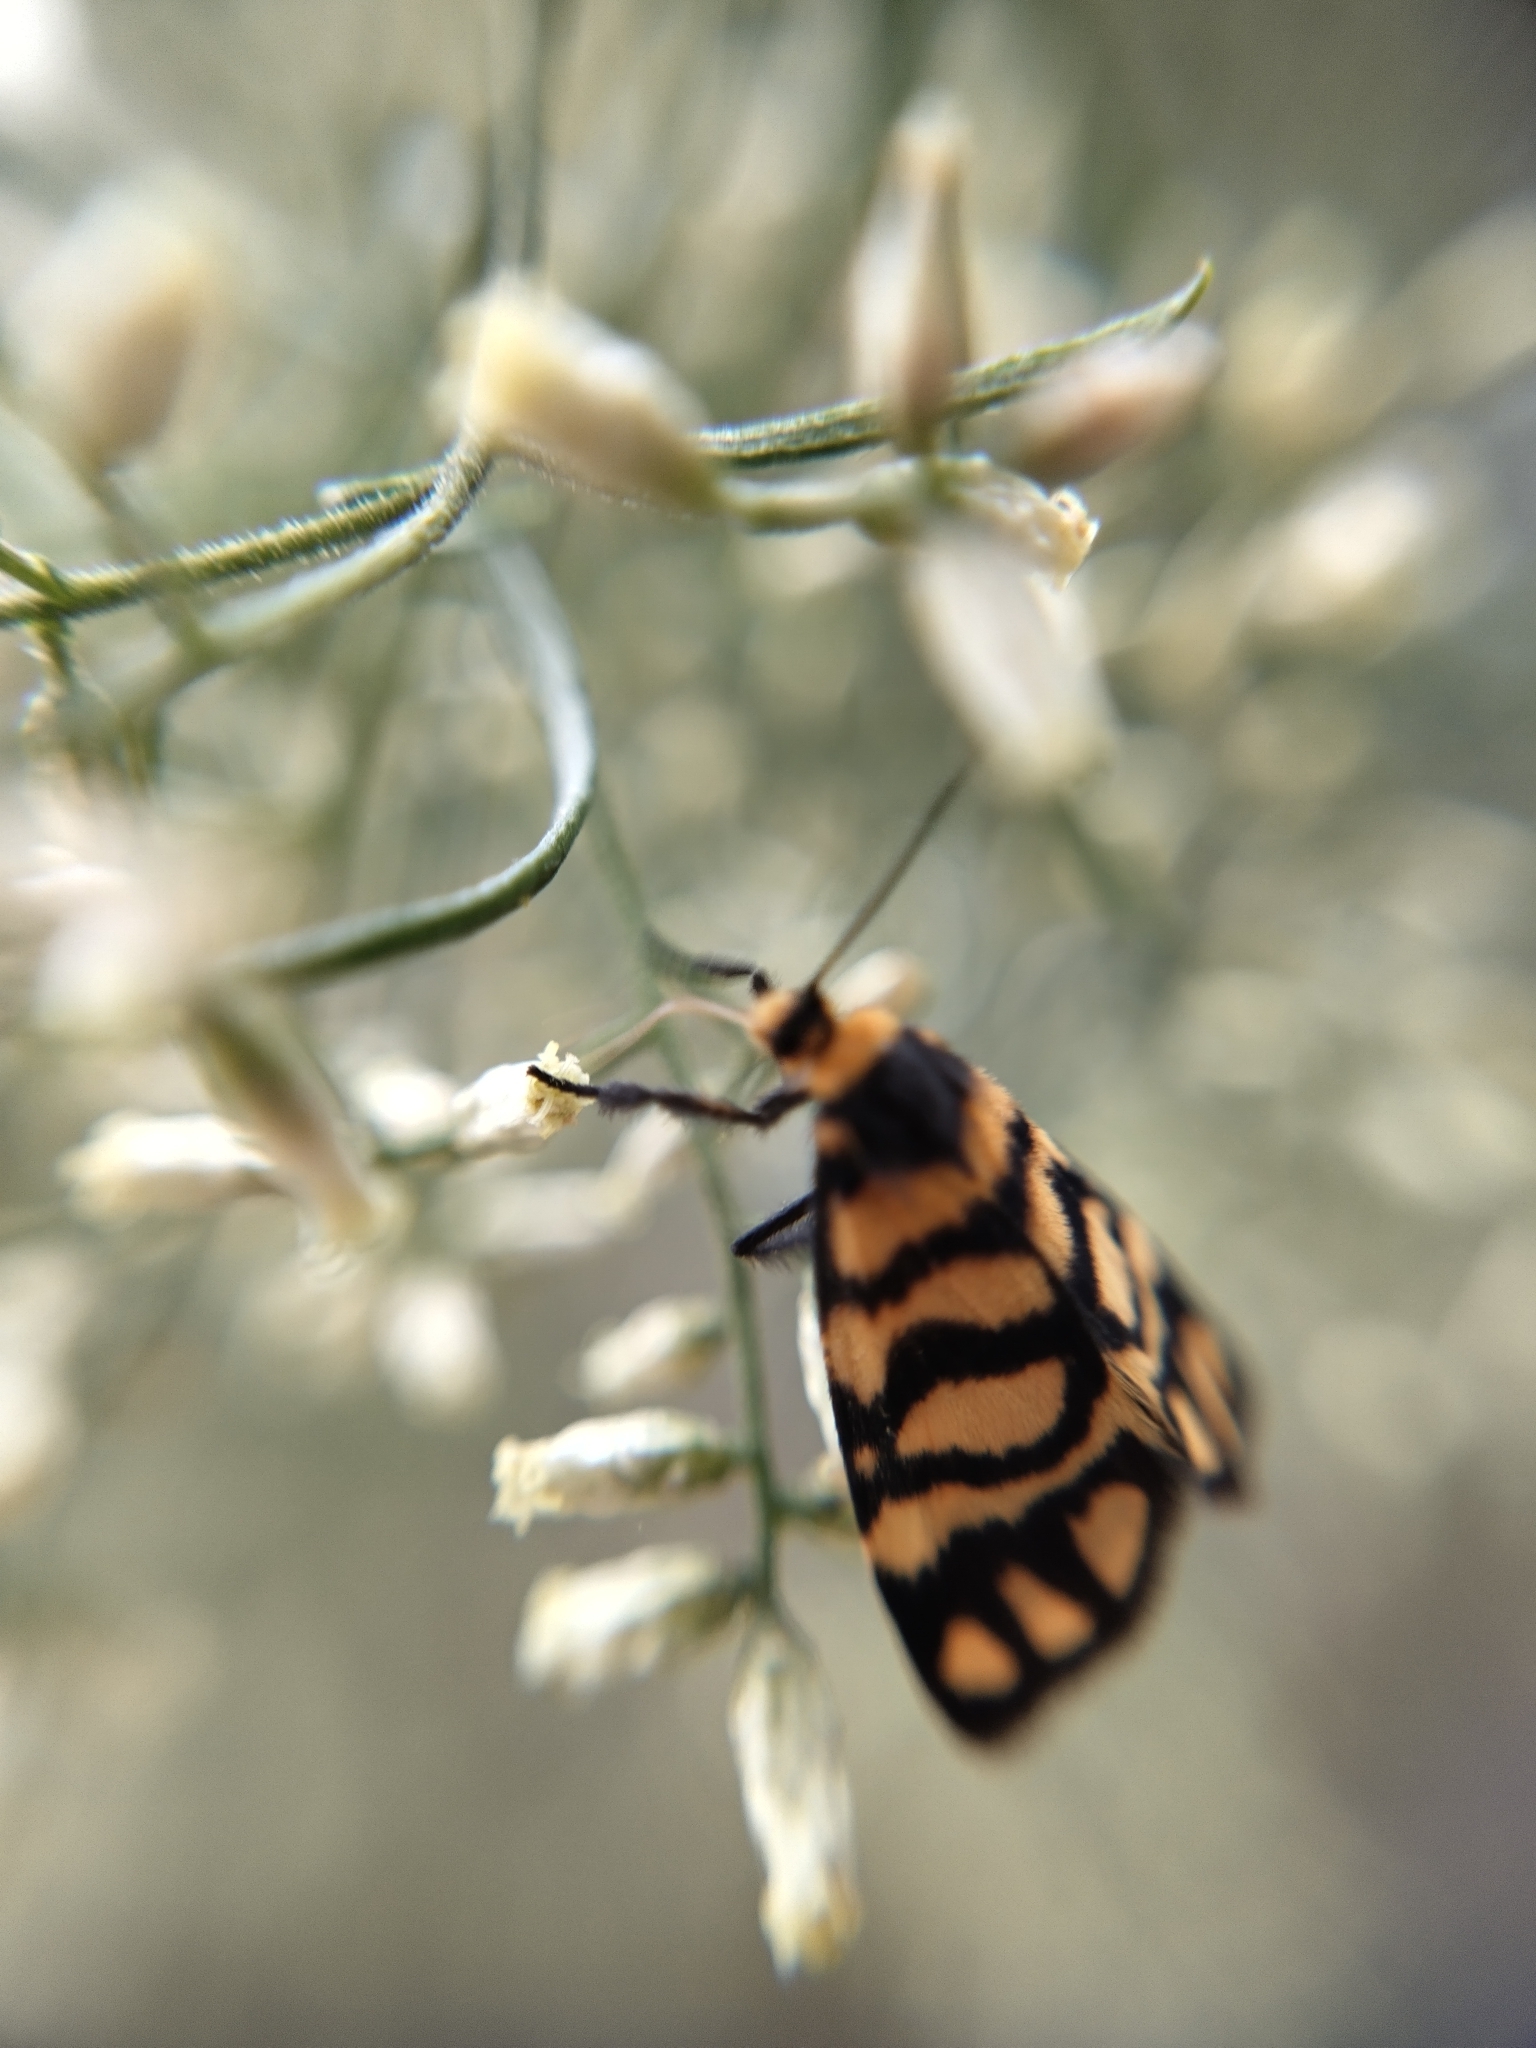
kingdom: Animalia
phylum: Arthropoda
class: Insecta
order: Lepidoptera
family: Erebidae
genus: Asura
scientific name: Asura lydia
